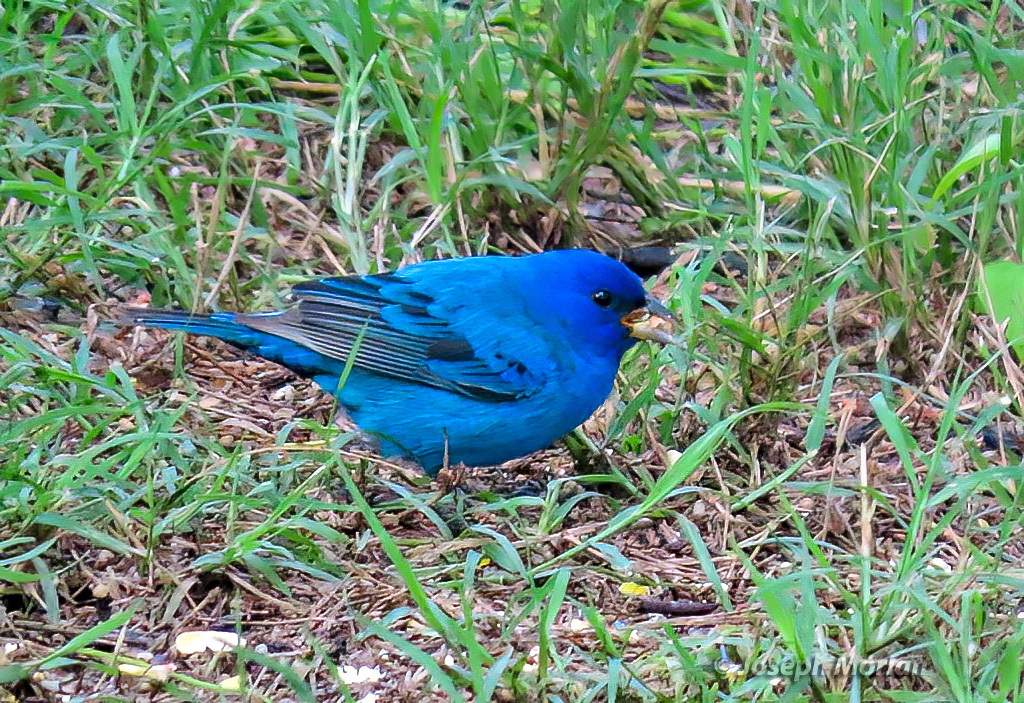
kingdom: Animalia
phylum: Chordata
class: Aves
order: Passeriformes
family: Cardinalidae
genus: Passerina
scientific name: Passerina cyanea
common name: Indigo bunting
